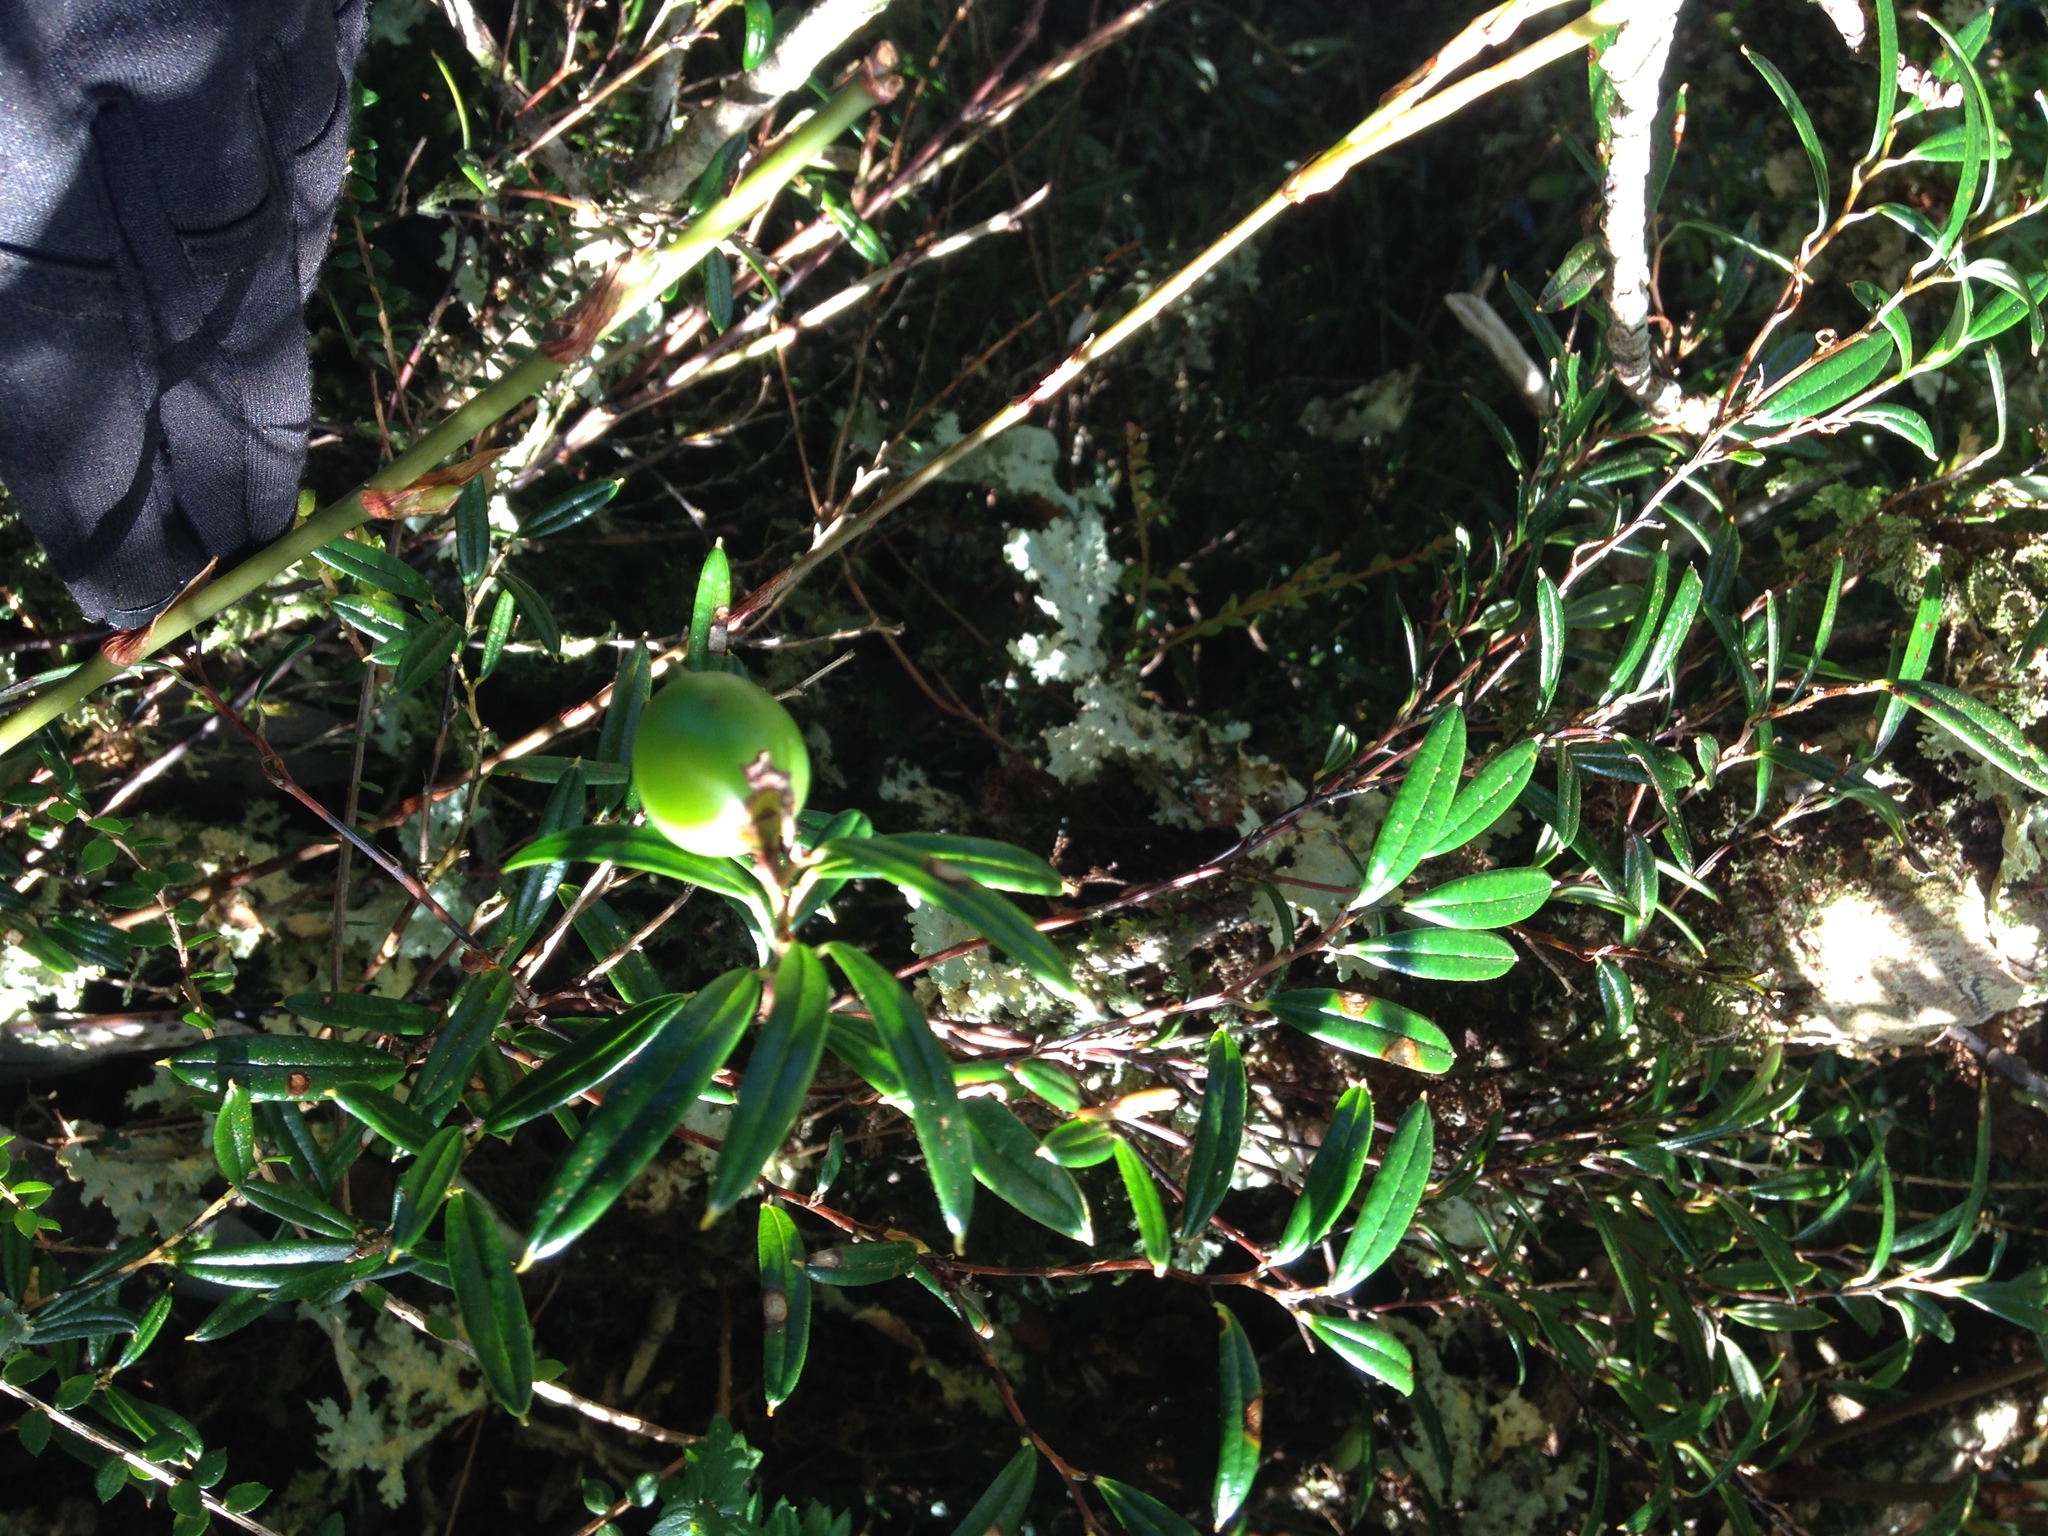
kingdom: Plantae
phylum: Tracheophyta
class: Liliopsida
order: Liliales
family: Philesiaceae
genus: Philesia
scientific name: Philesia magellanica
